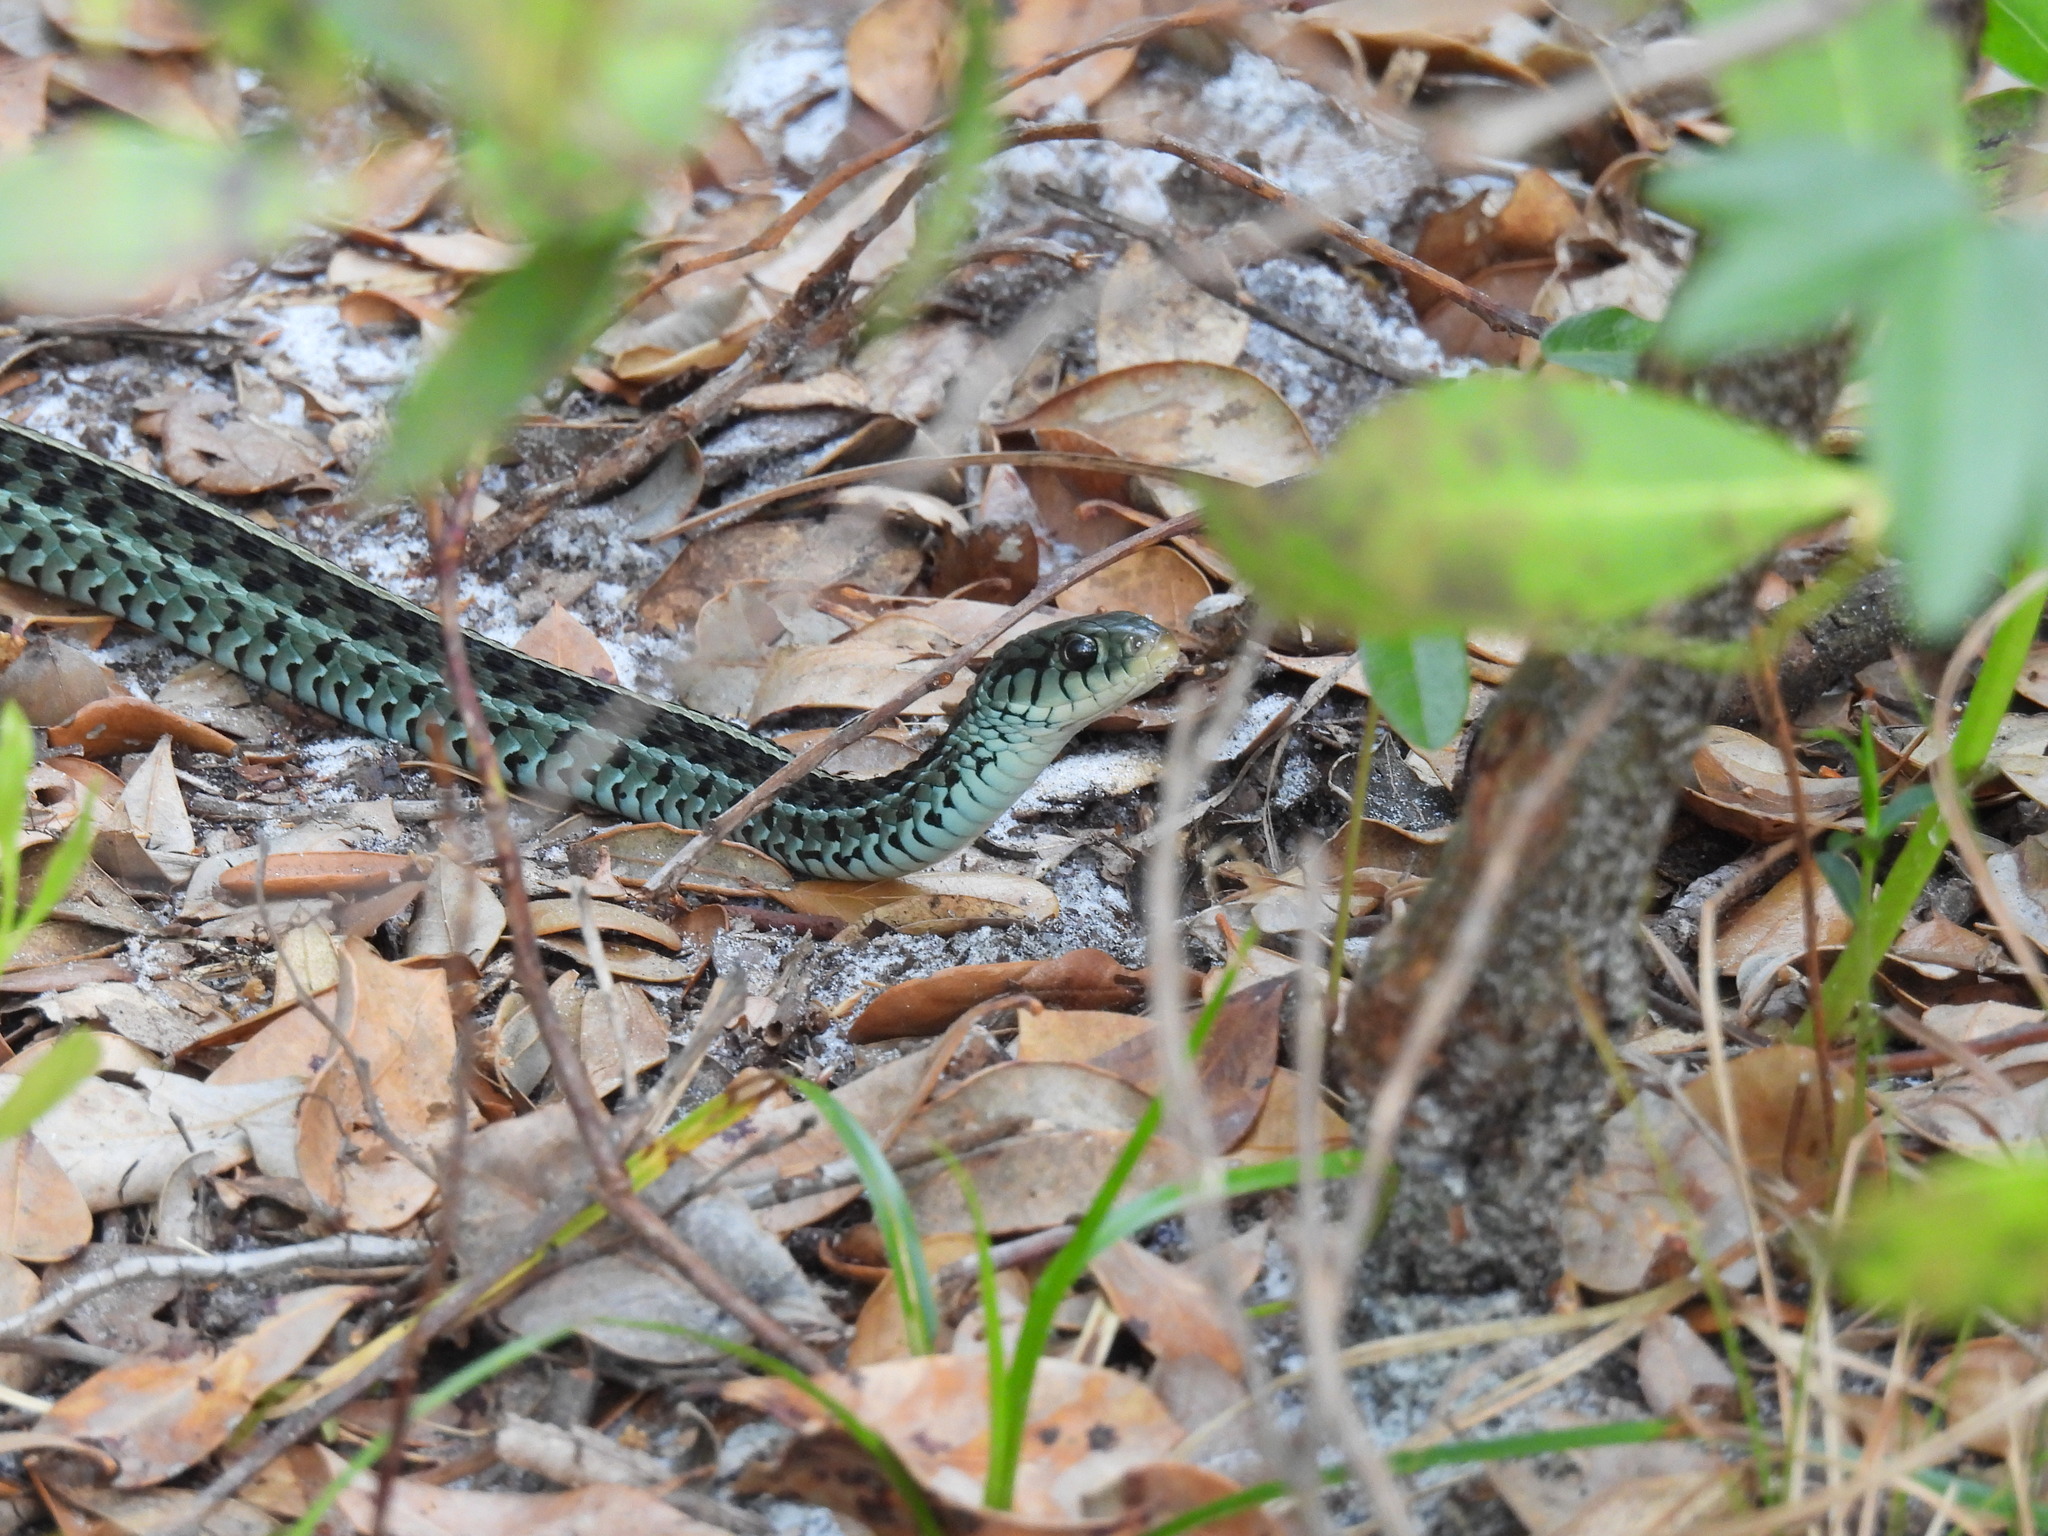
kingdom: Animalia
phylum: Chordata
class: Squamata
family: Colubridae
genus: Thamnophis
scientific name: Thamnophis sirtalis
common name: Common garter snake
